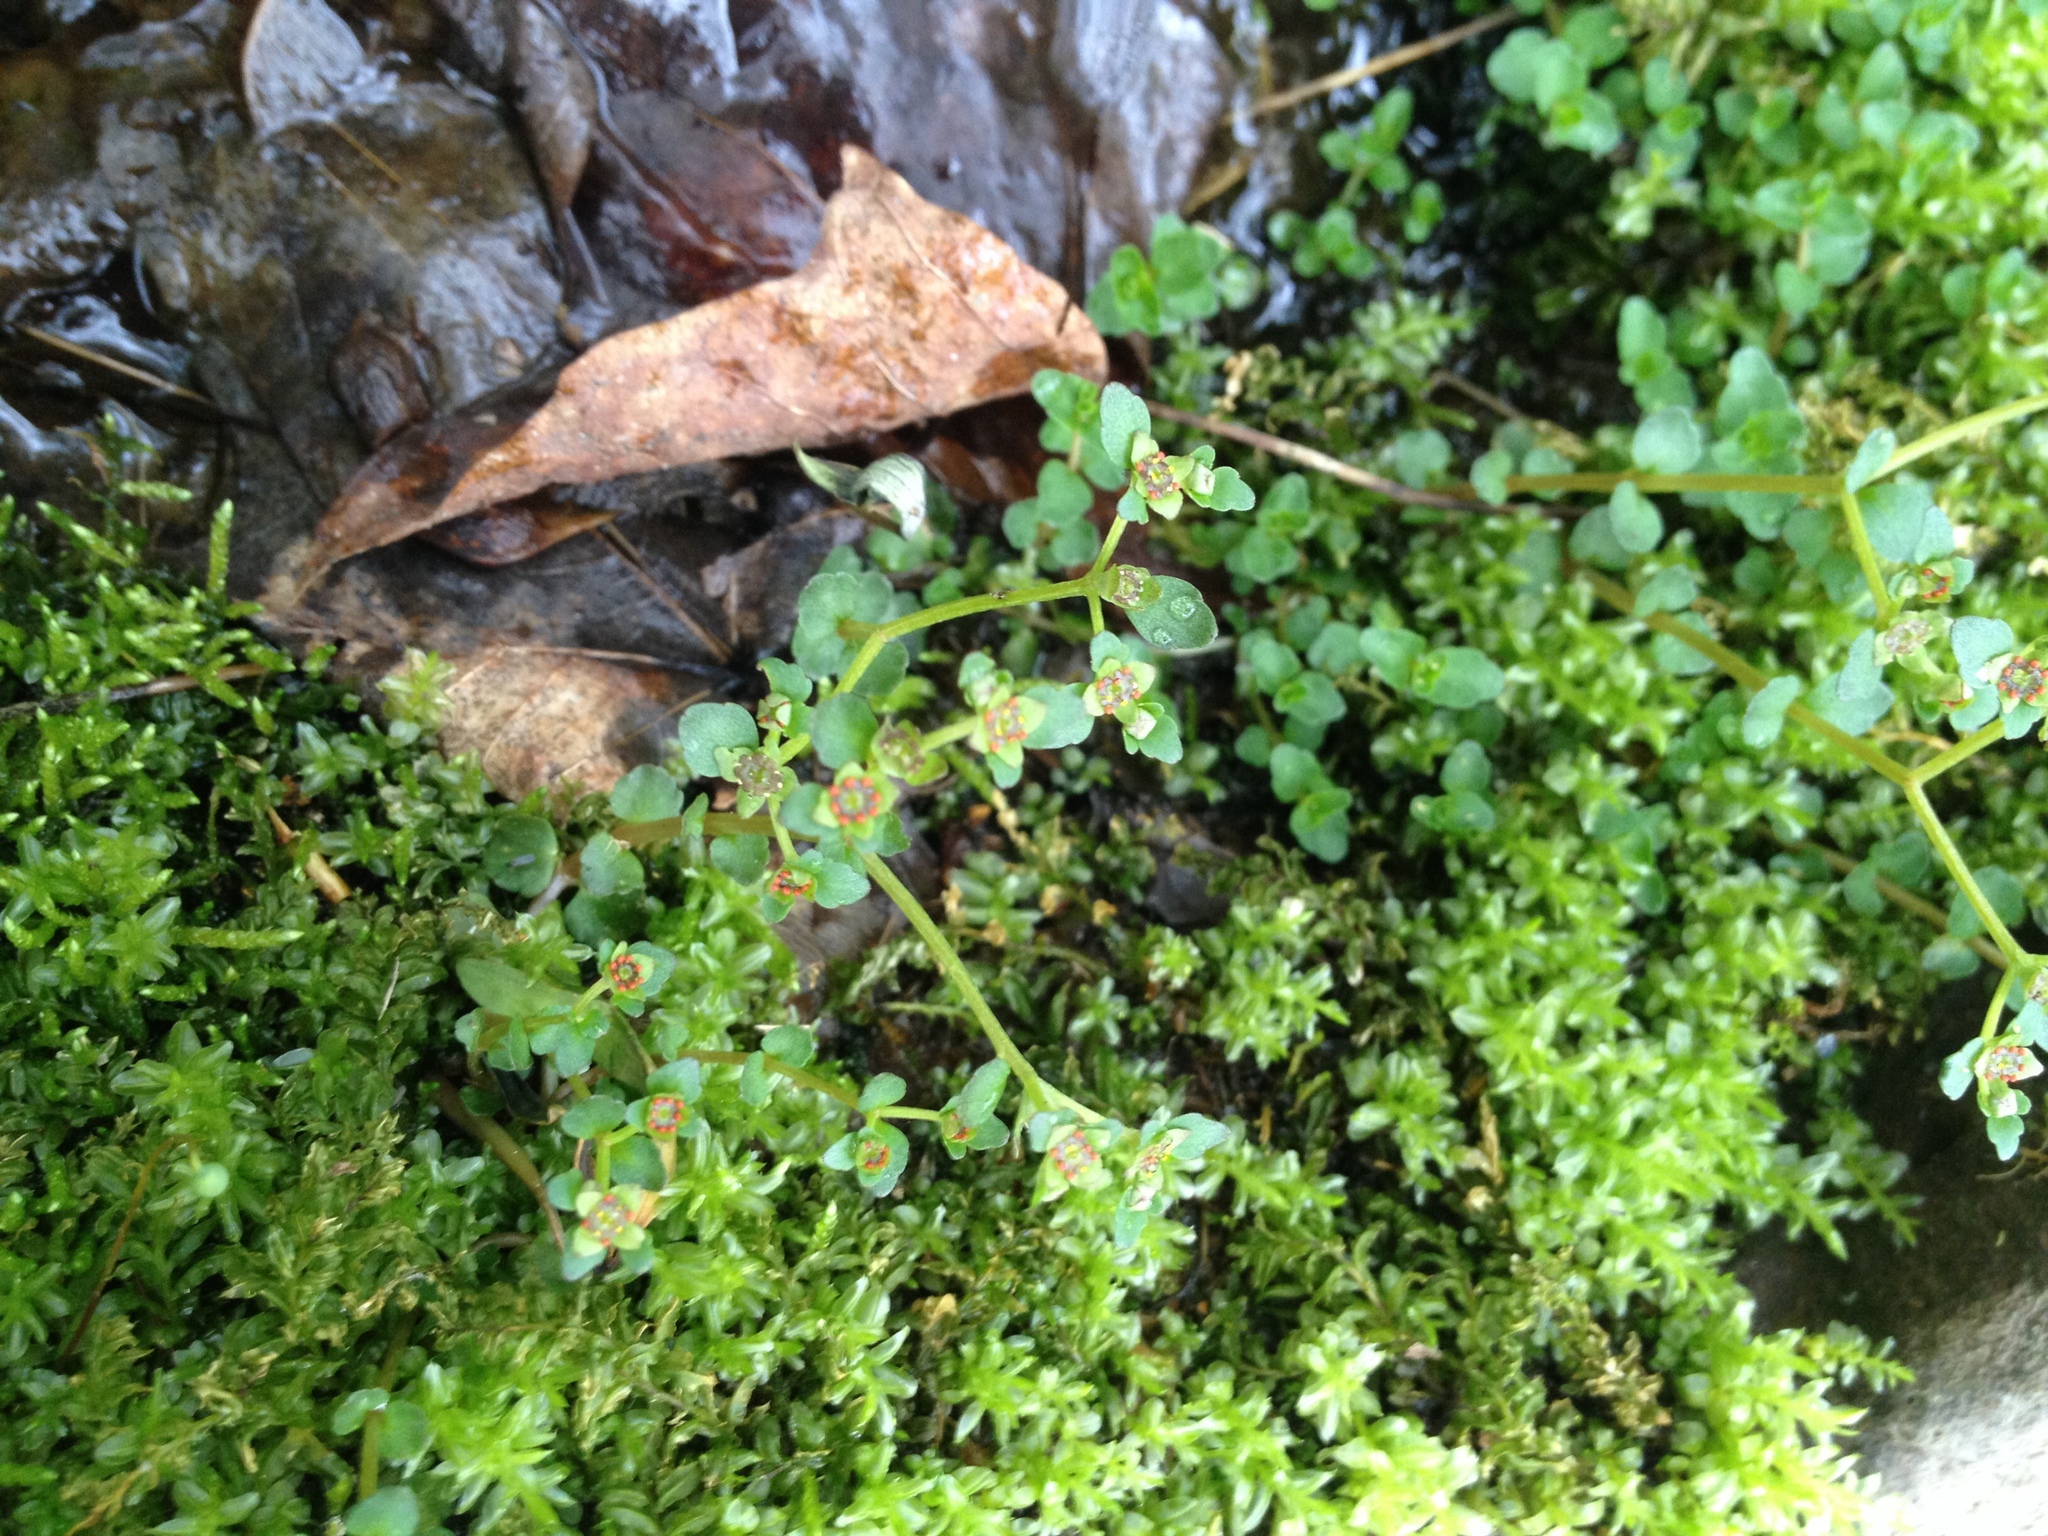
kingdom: Plantae
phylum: Tracheophyta
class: Magnoliopsida
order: Saxifragales
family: Saxifragaceae
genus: Chrysosplenium
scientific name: Chrysosplenium americanum
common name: American golden-saxifrage
